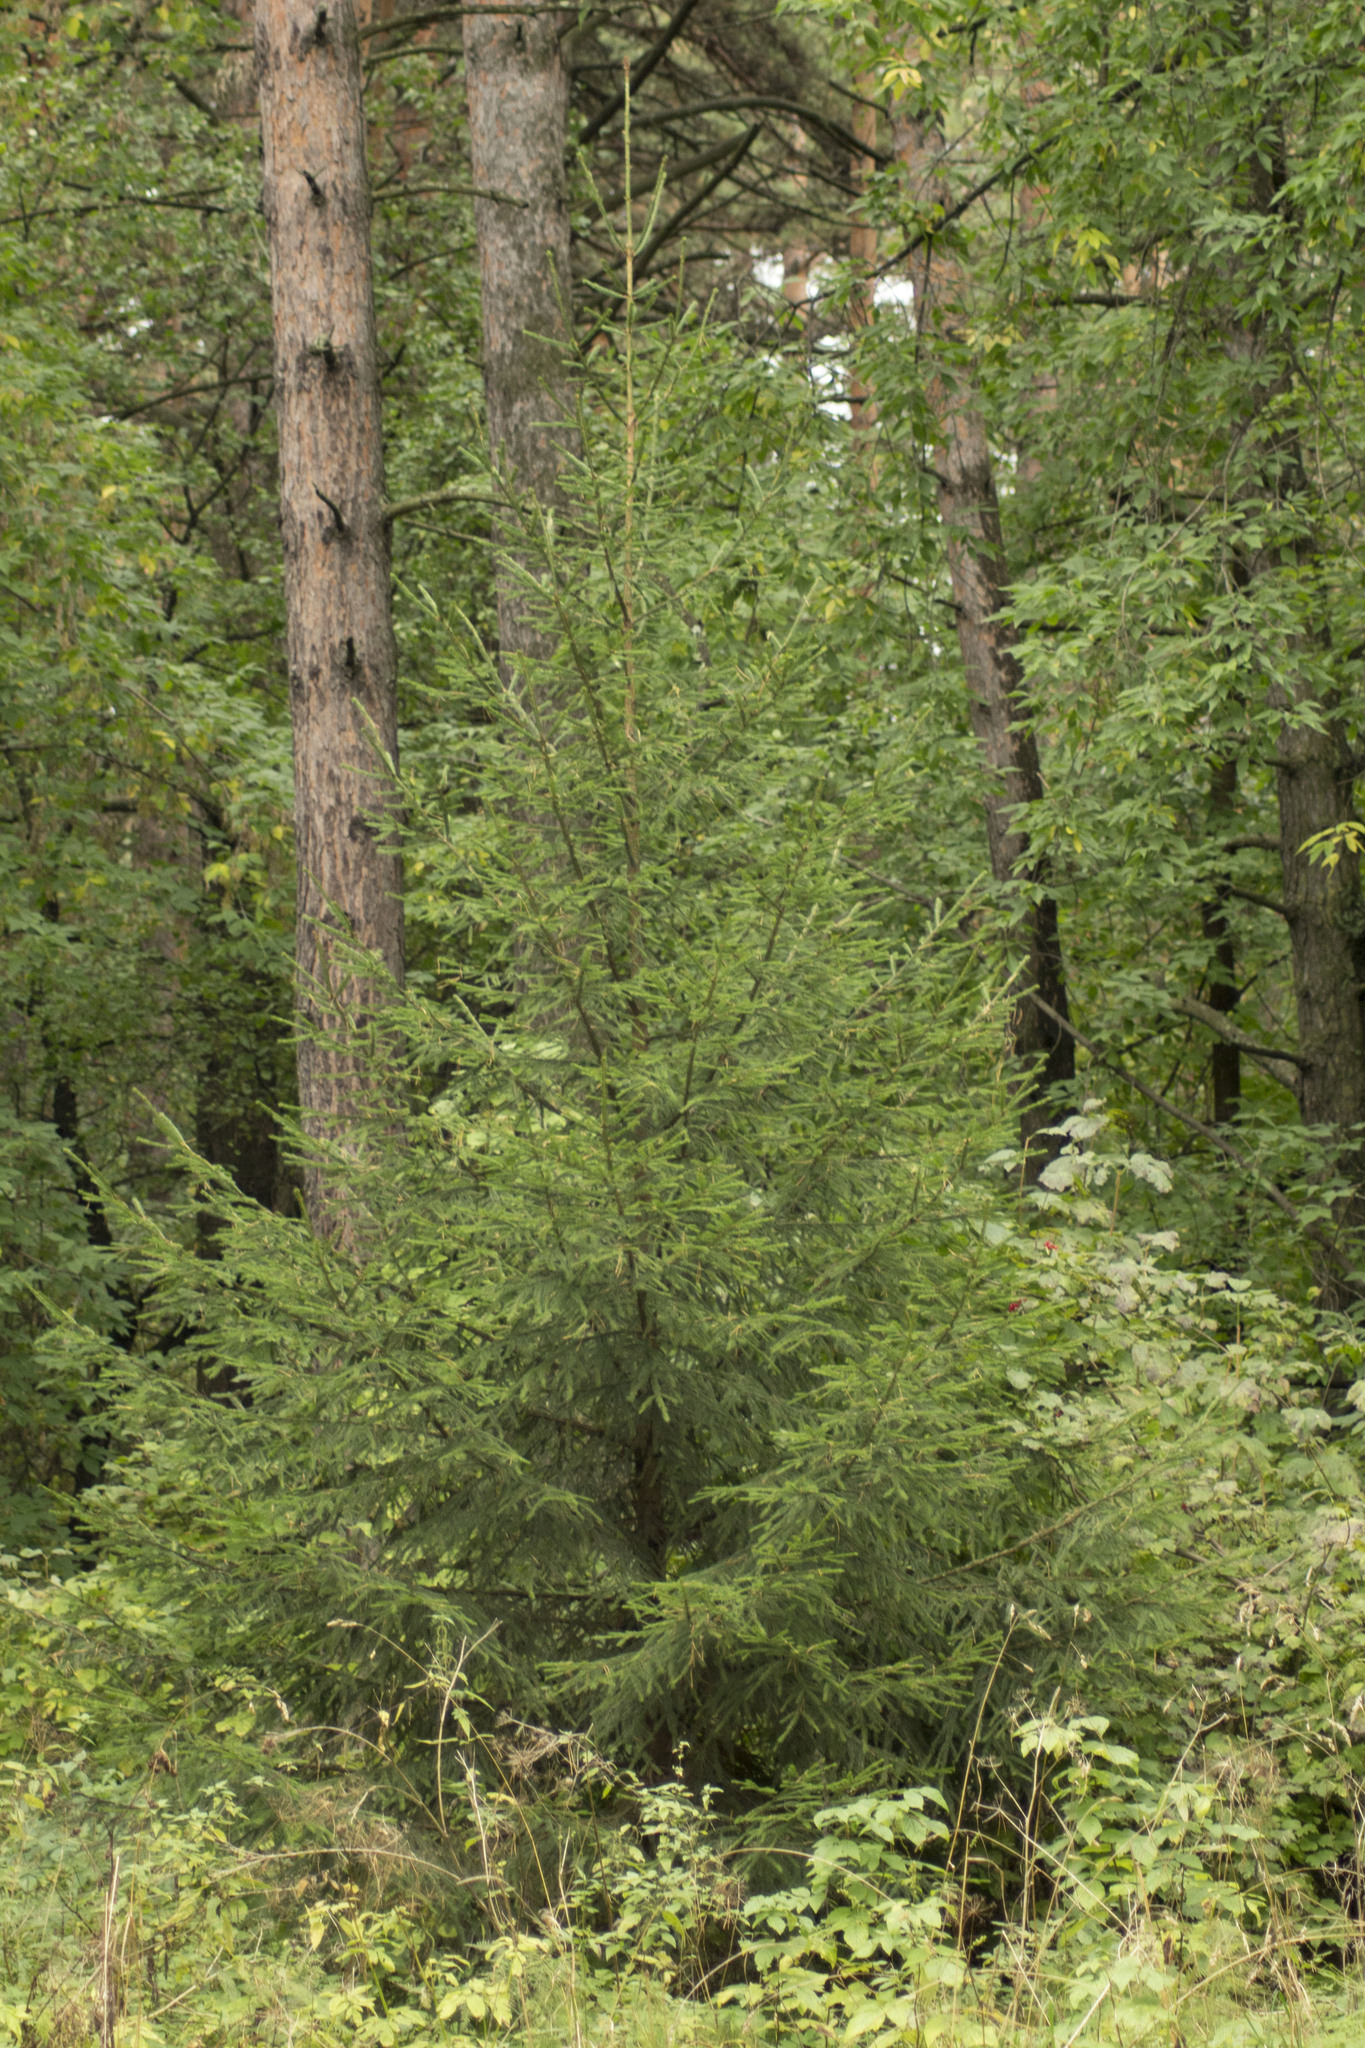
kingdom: Plantae
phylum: Tracheophyta
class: Pinopsida
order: Pinales
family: Pinaceae
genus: Picea
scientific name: Picea obovata
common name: Siberian spruce
